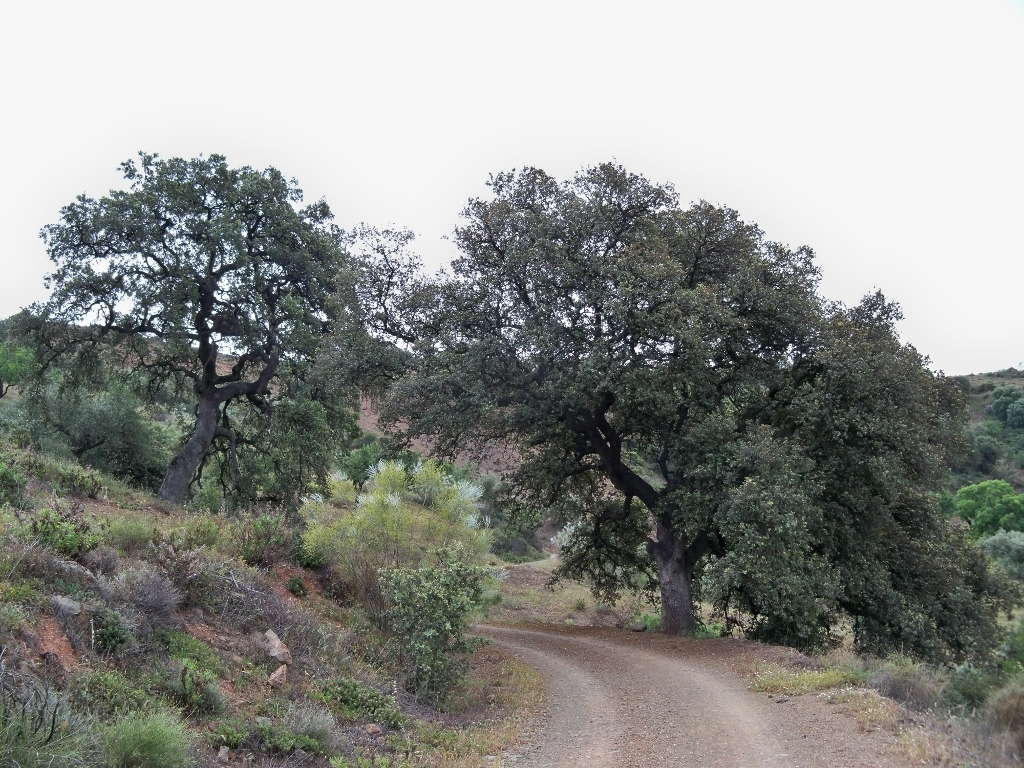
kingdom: Plantae
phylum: Tracheophyta
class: Magnoliopsida
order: Fagales
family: Fagaceae
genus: Quercus
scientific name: Quercus rotundifolia
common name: Holm oak
